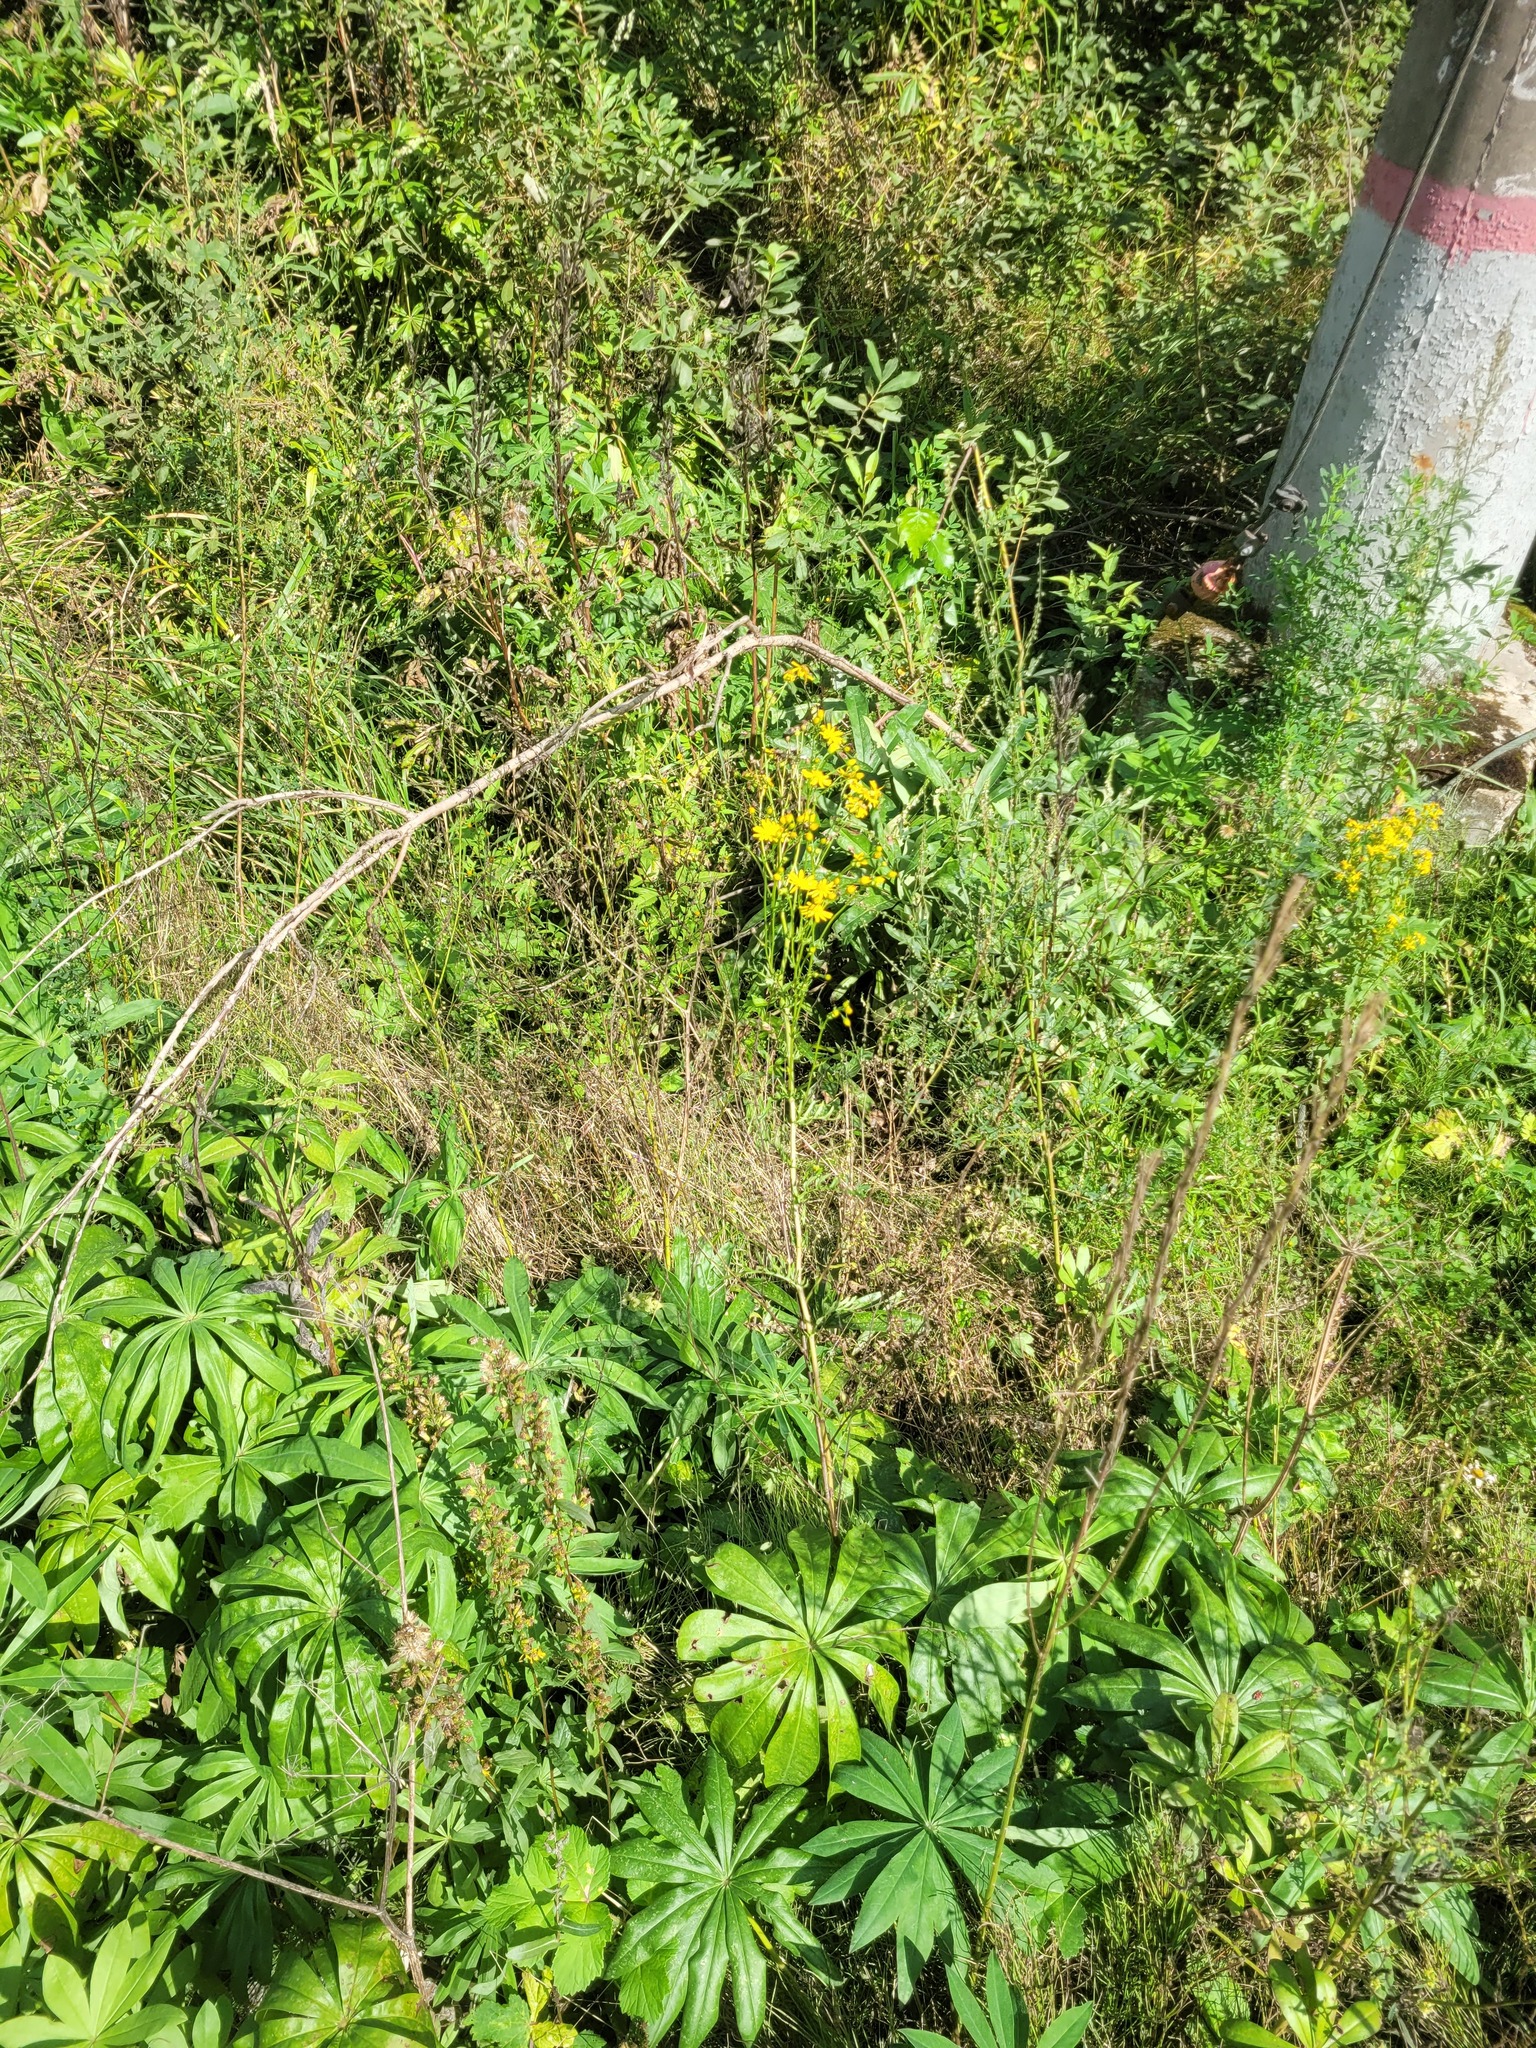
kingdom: Plantae
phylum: Tracheophyta
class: Magnoliopsida
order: Asterales
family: Asteraceae
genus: Jacobaea
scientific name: Jacobaea vulgaris
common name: Stinking willie
